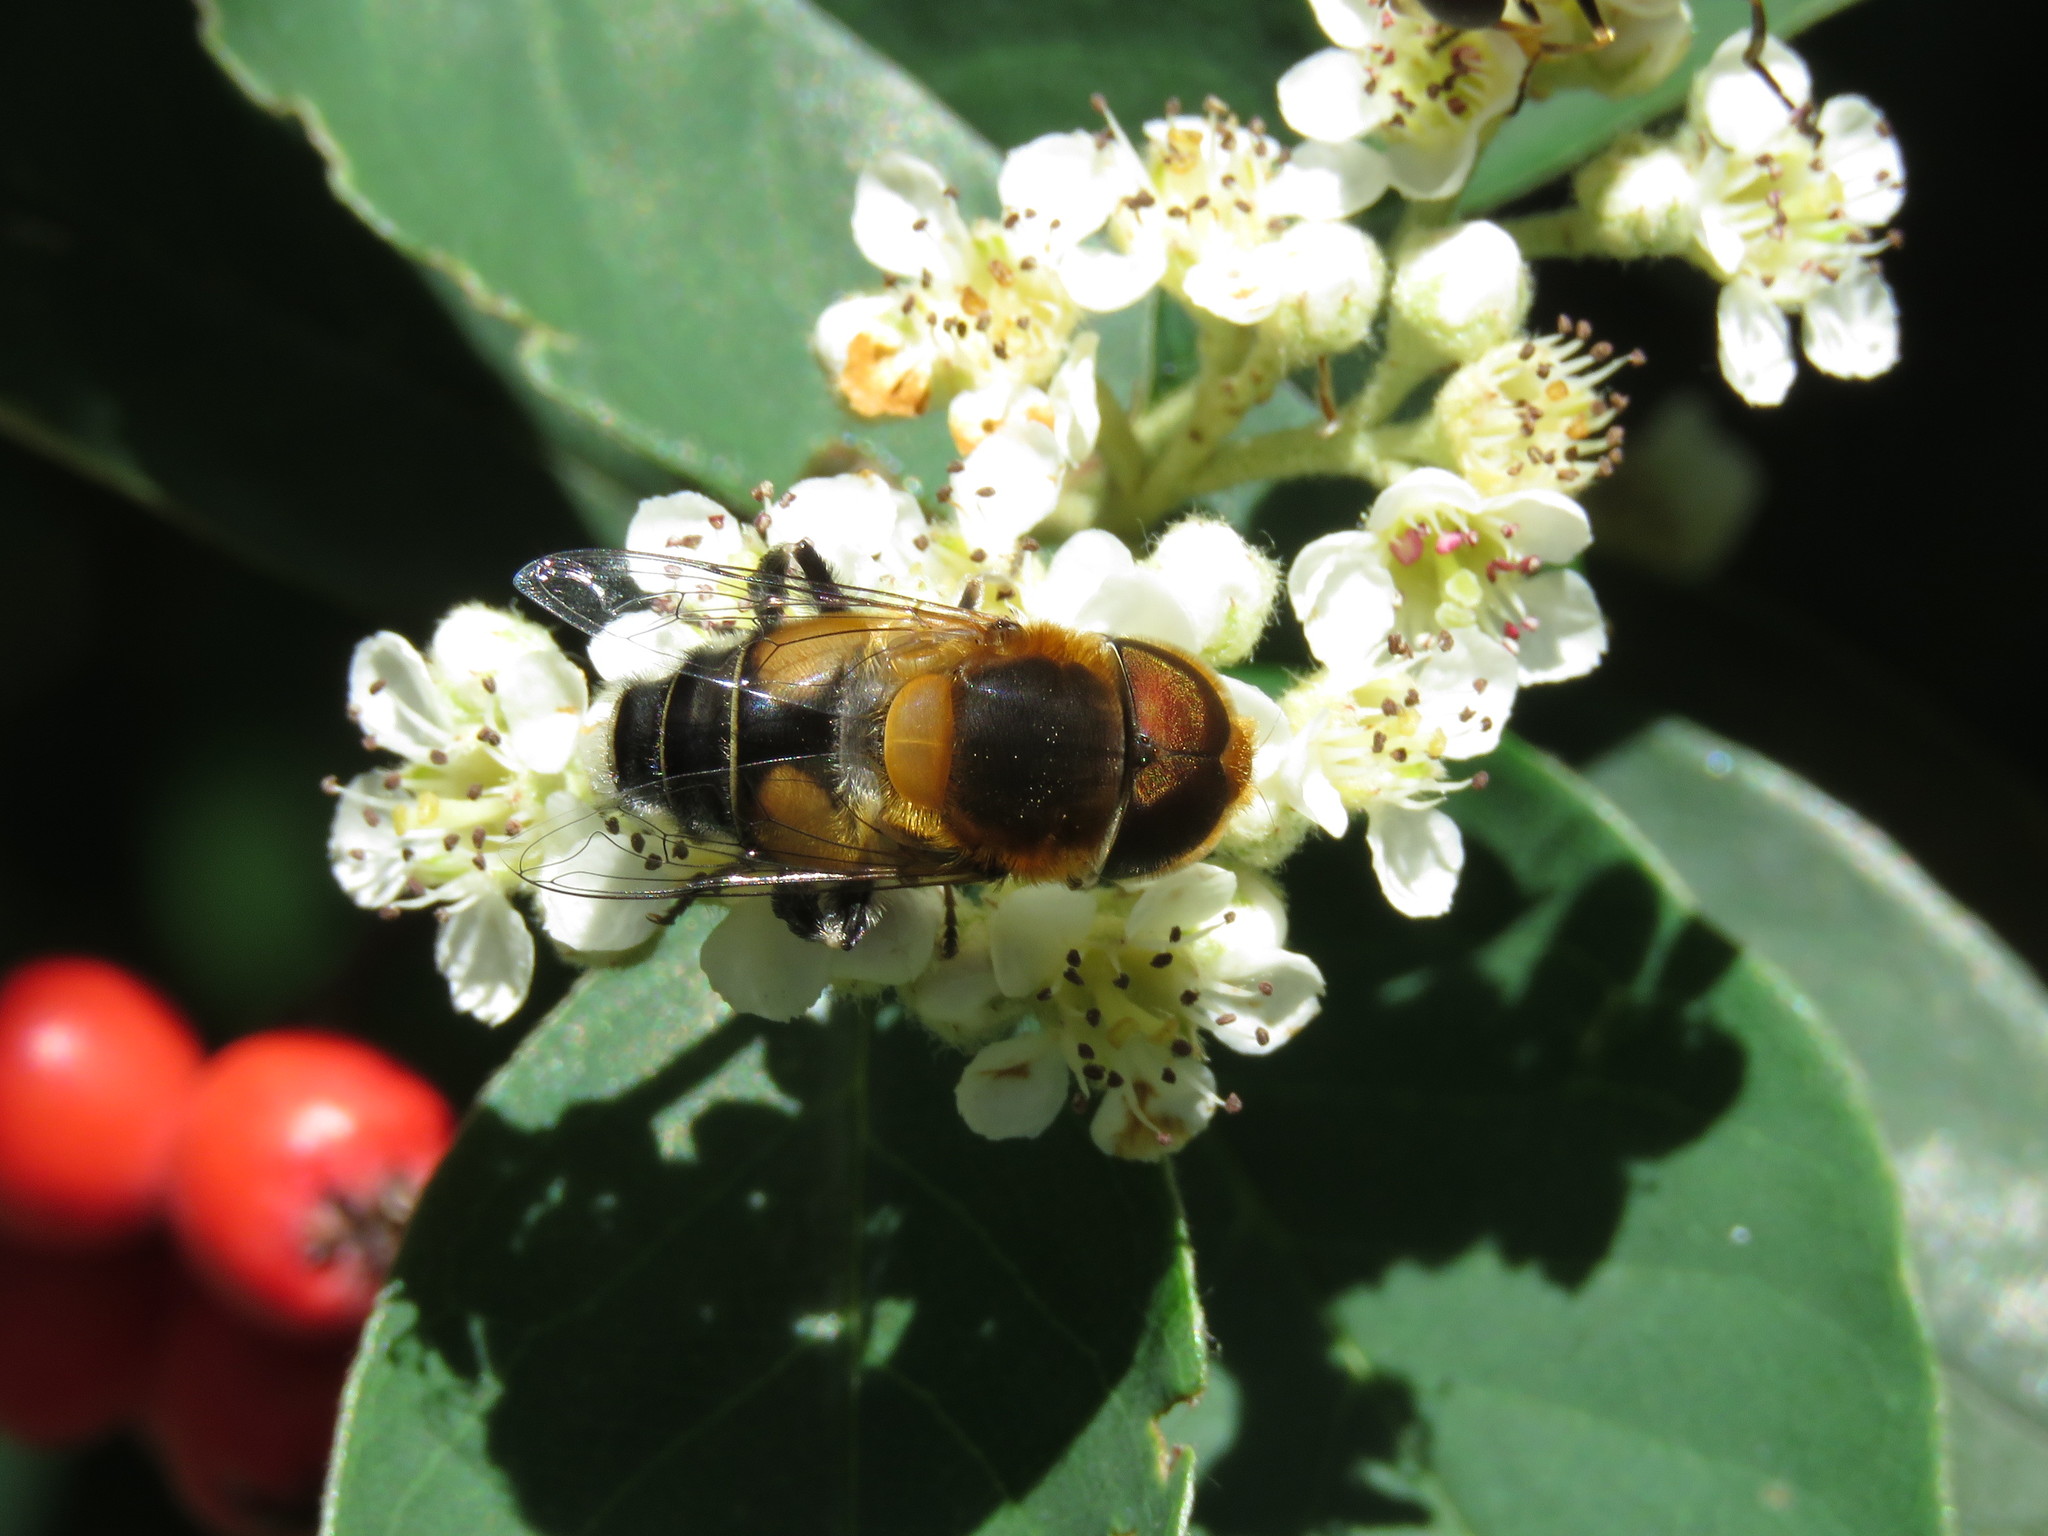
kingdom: Animalia
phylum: Arthropoda
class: Insecta
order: Diptera
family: Syrphidae
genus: Palpada
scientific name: Palpada ruficeps
